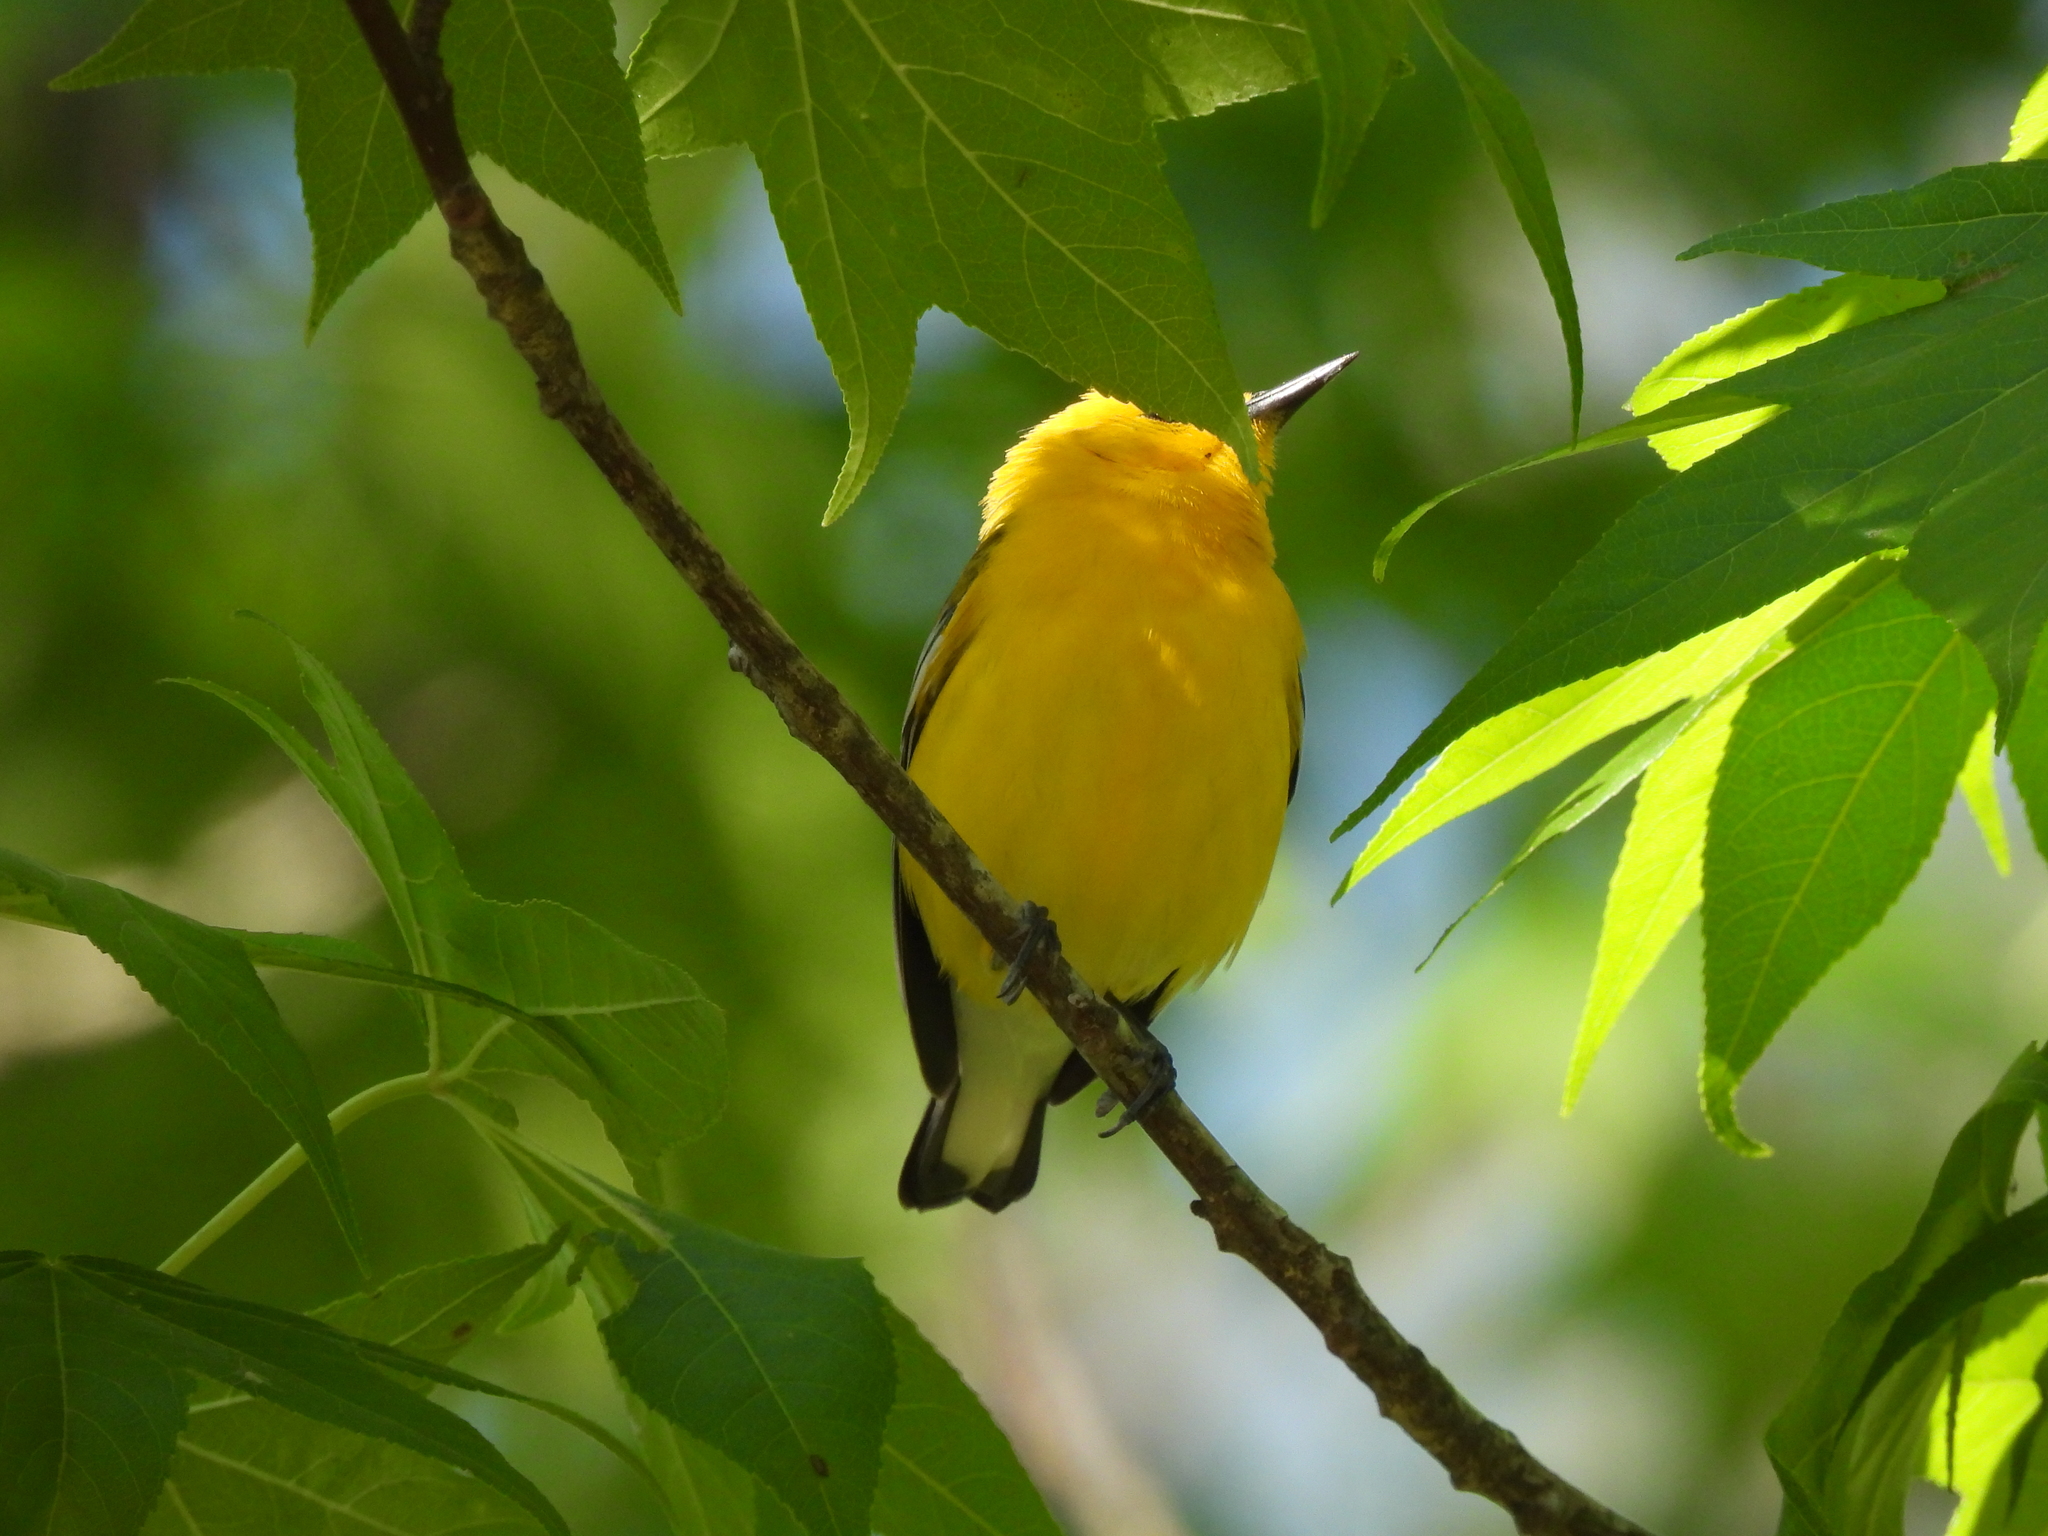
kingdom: Animalia
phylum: Chordata
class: Aves
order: Passeriformes
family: Parulidae
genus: Protonotaria
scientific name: Protonotaria citrea
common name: Prothonotary warbler
